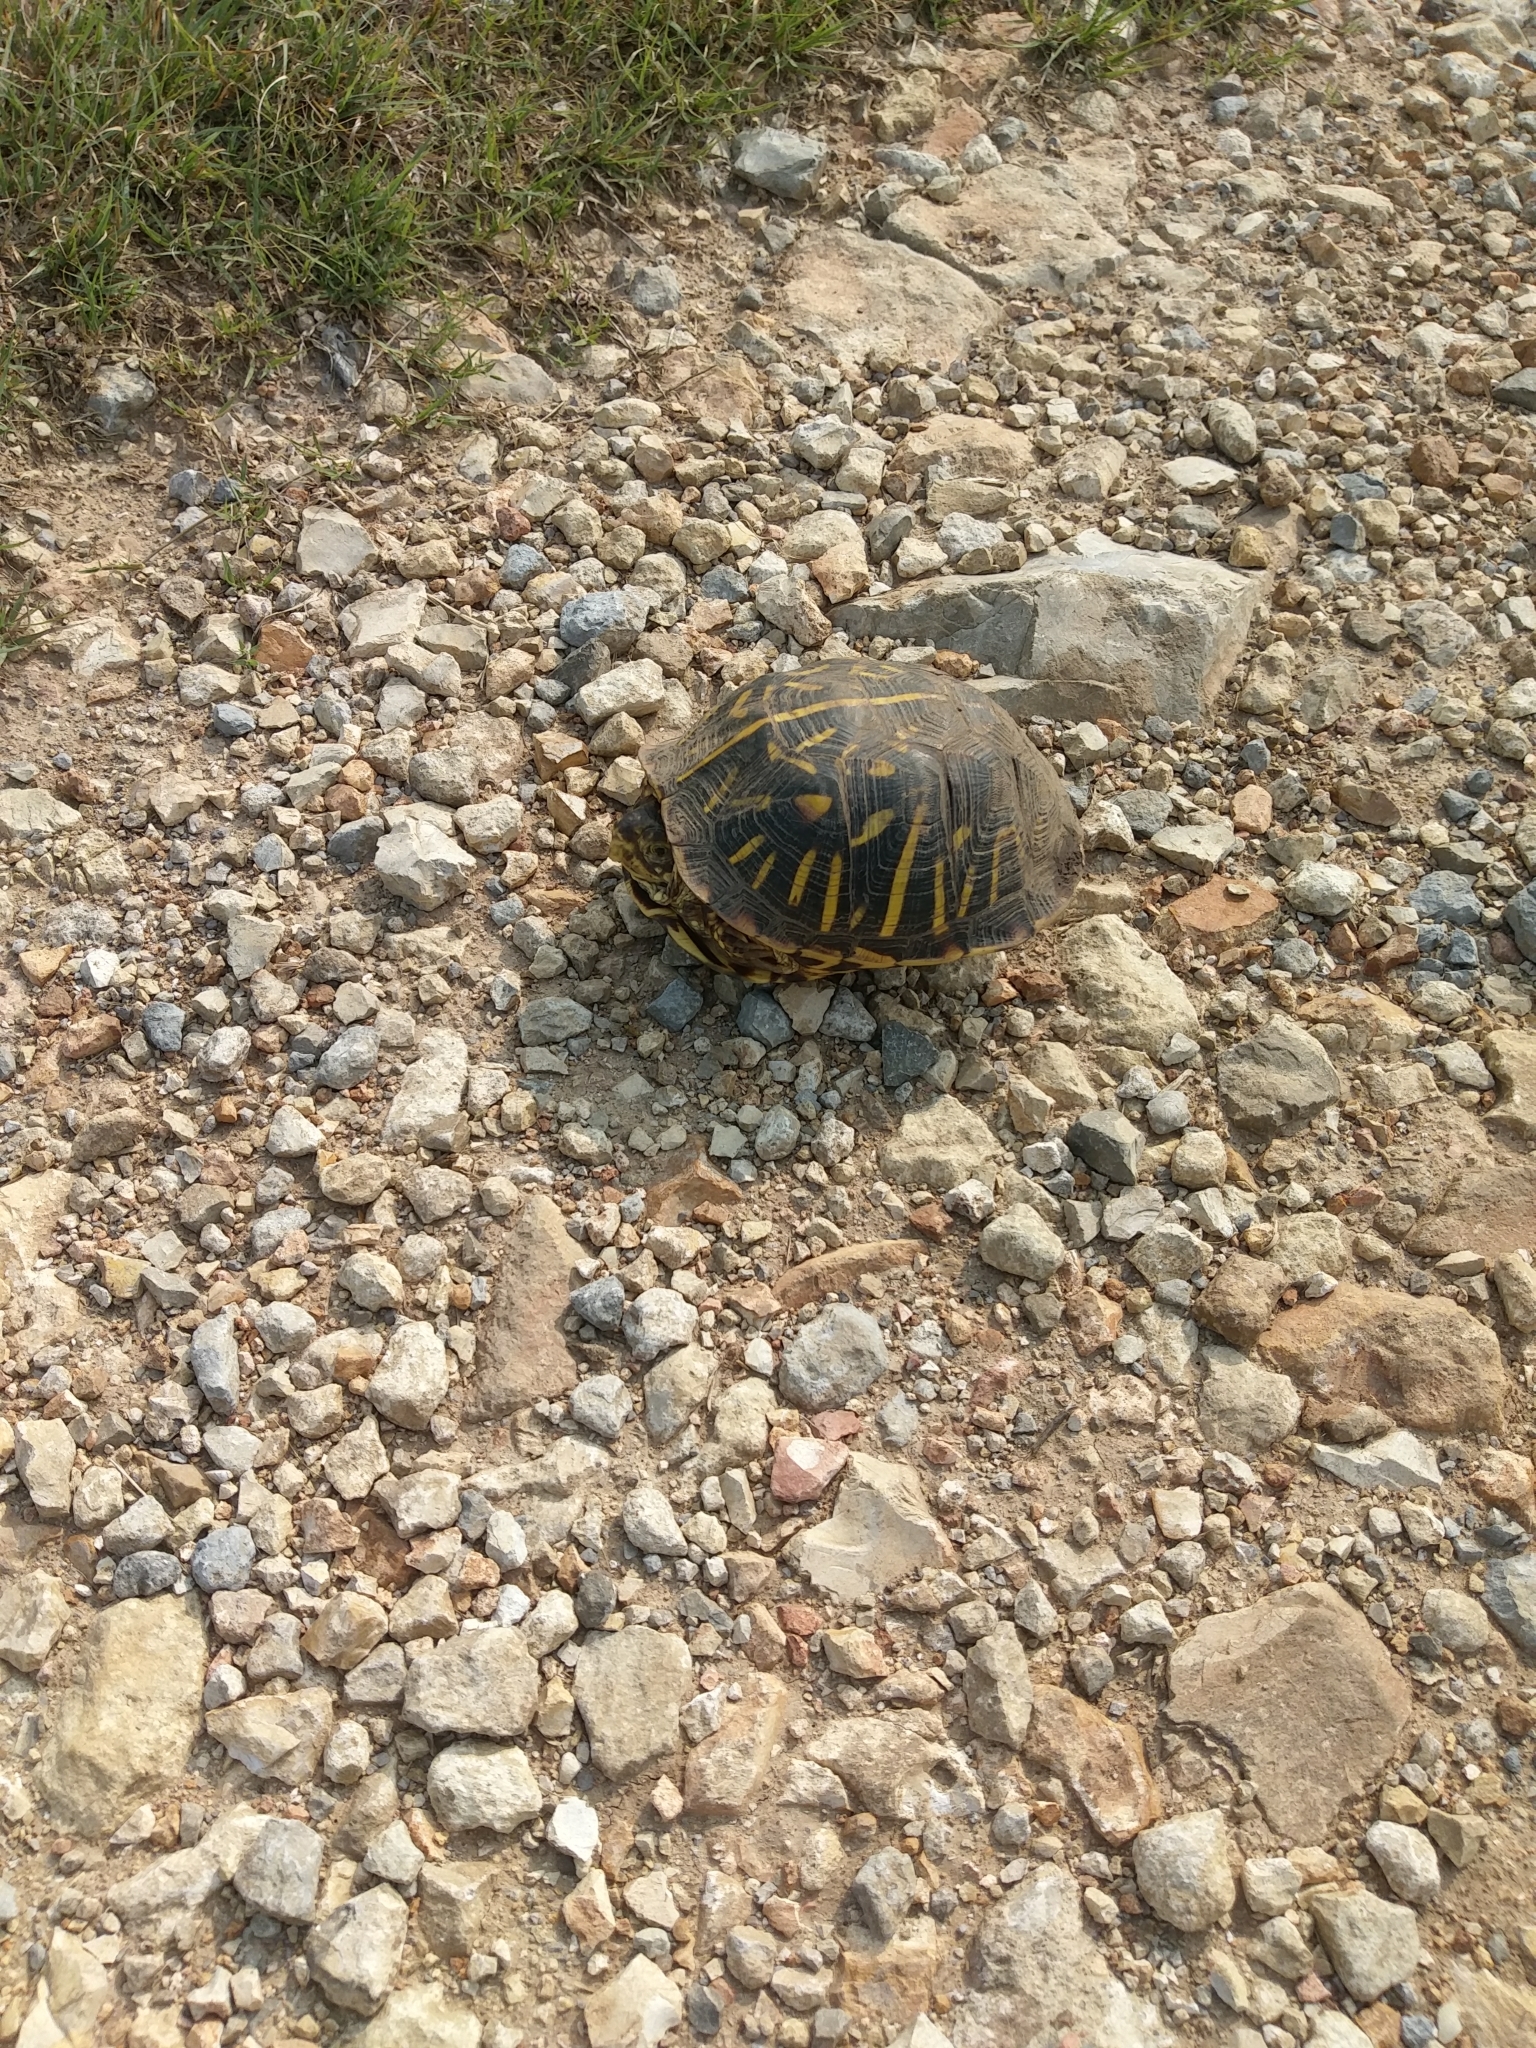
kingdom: Animalia
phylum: Chordata
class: Testudines
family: Emydidae
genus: Terrapene
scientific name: Terrapene ornata
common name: Western box turtle
